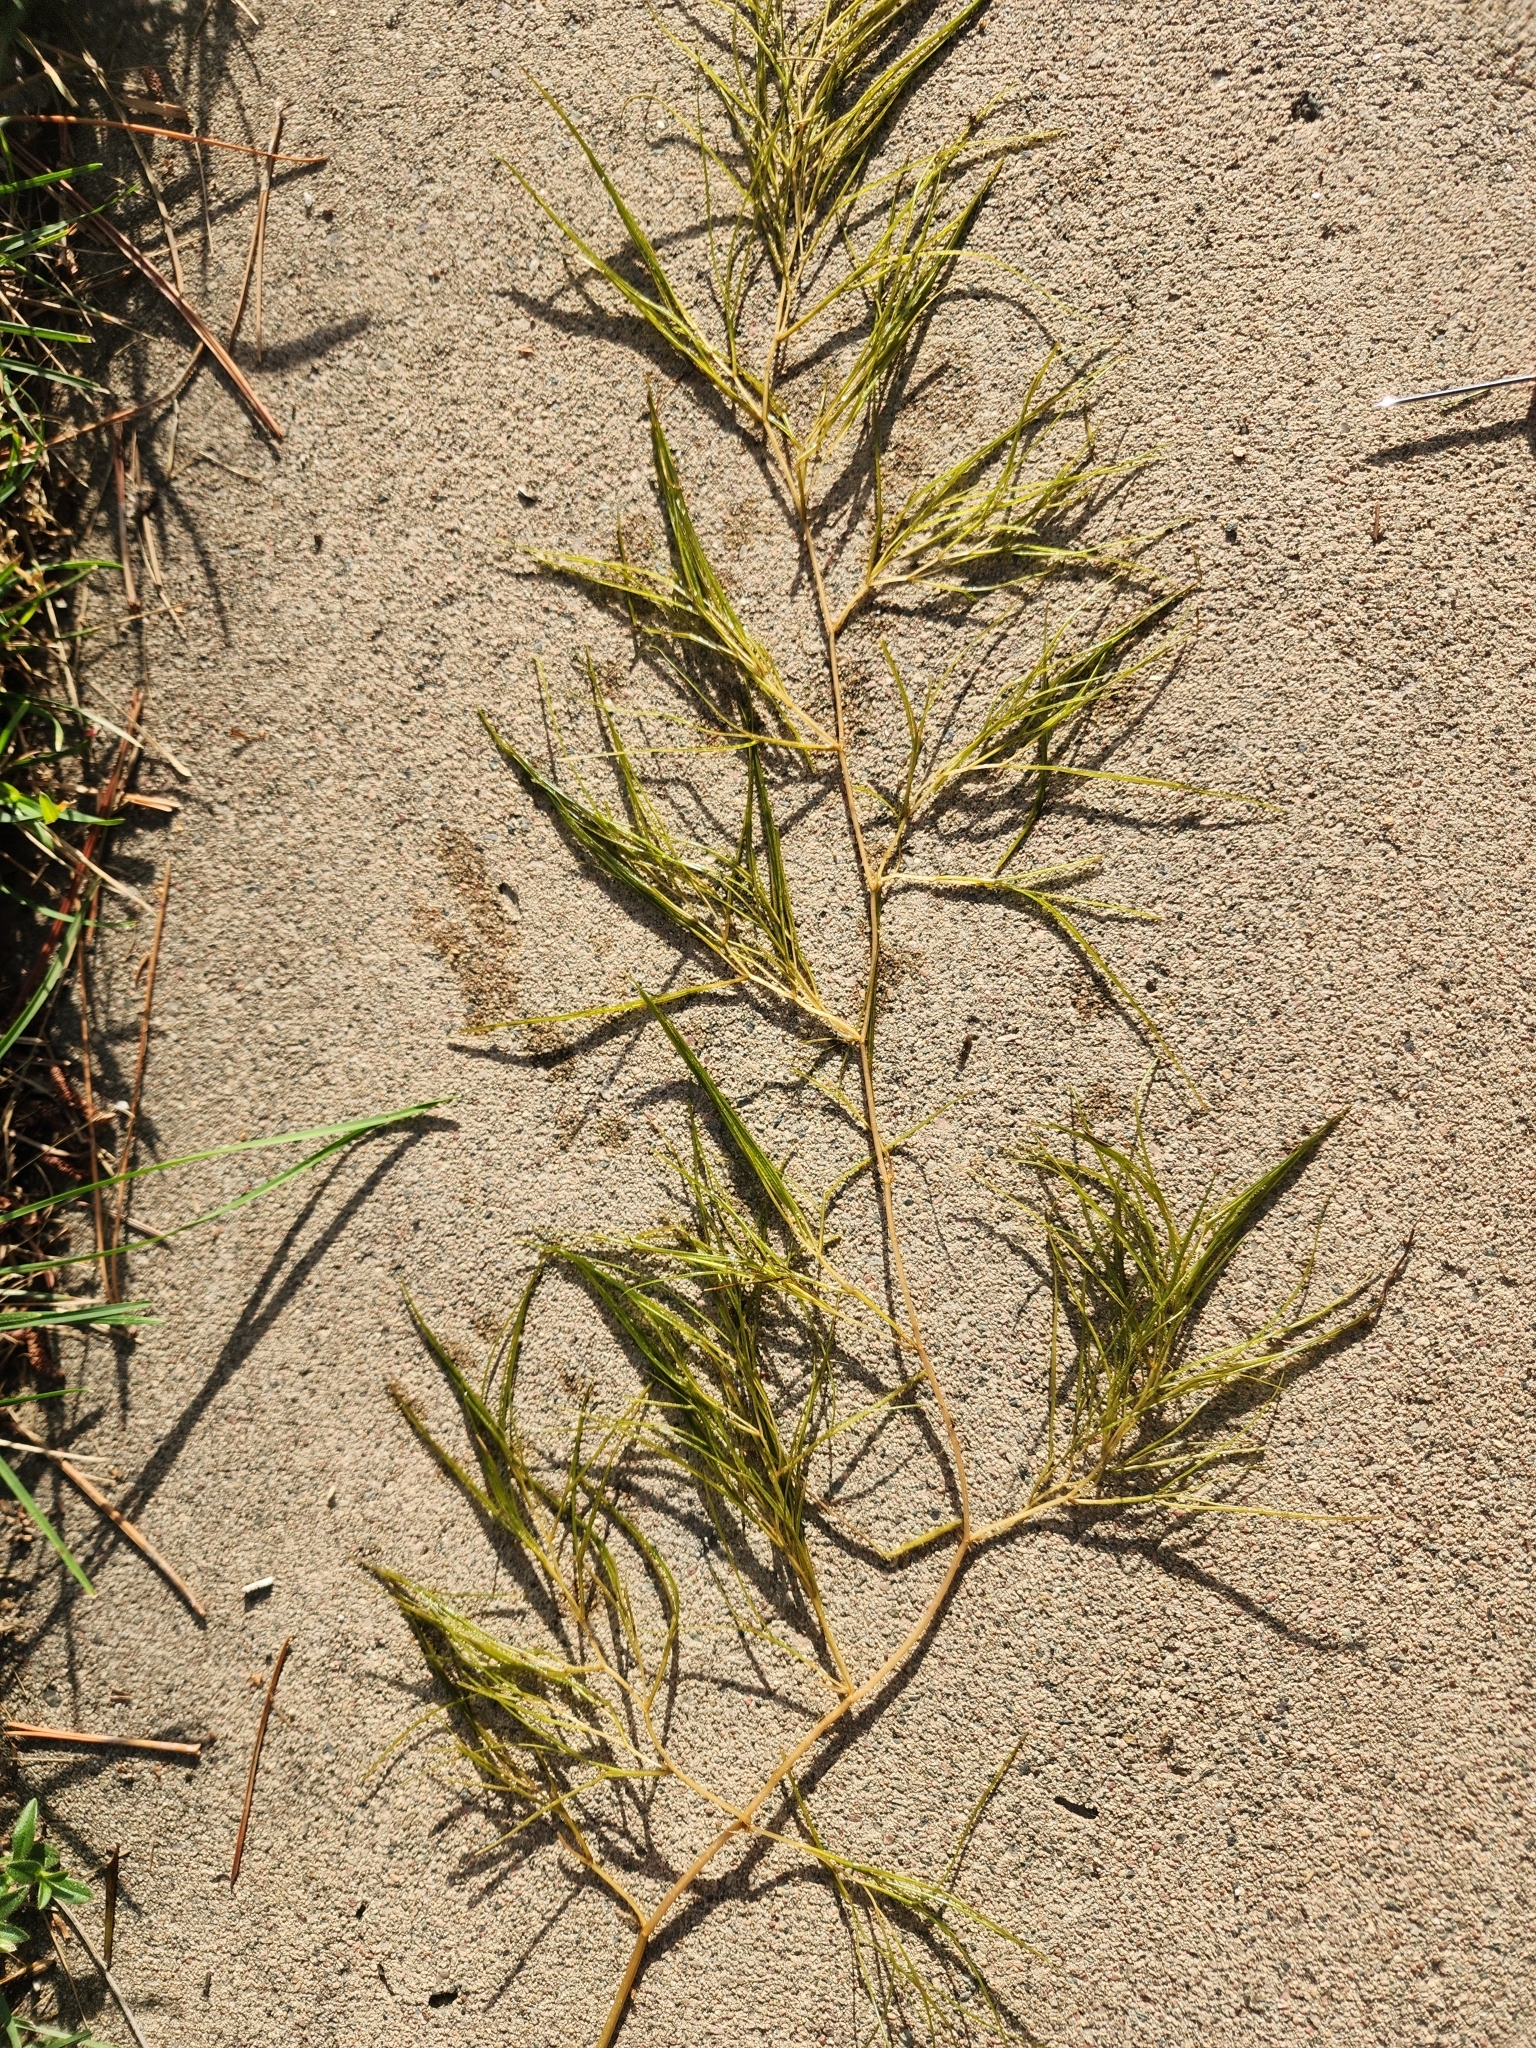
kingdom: Plantae
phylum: Tracheophyta
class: Liliopsida
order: Alismatales
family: Potamogetonaceae
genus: Stuckenia
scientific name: Stuckenia pectinata
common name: Sago pondweed
